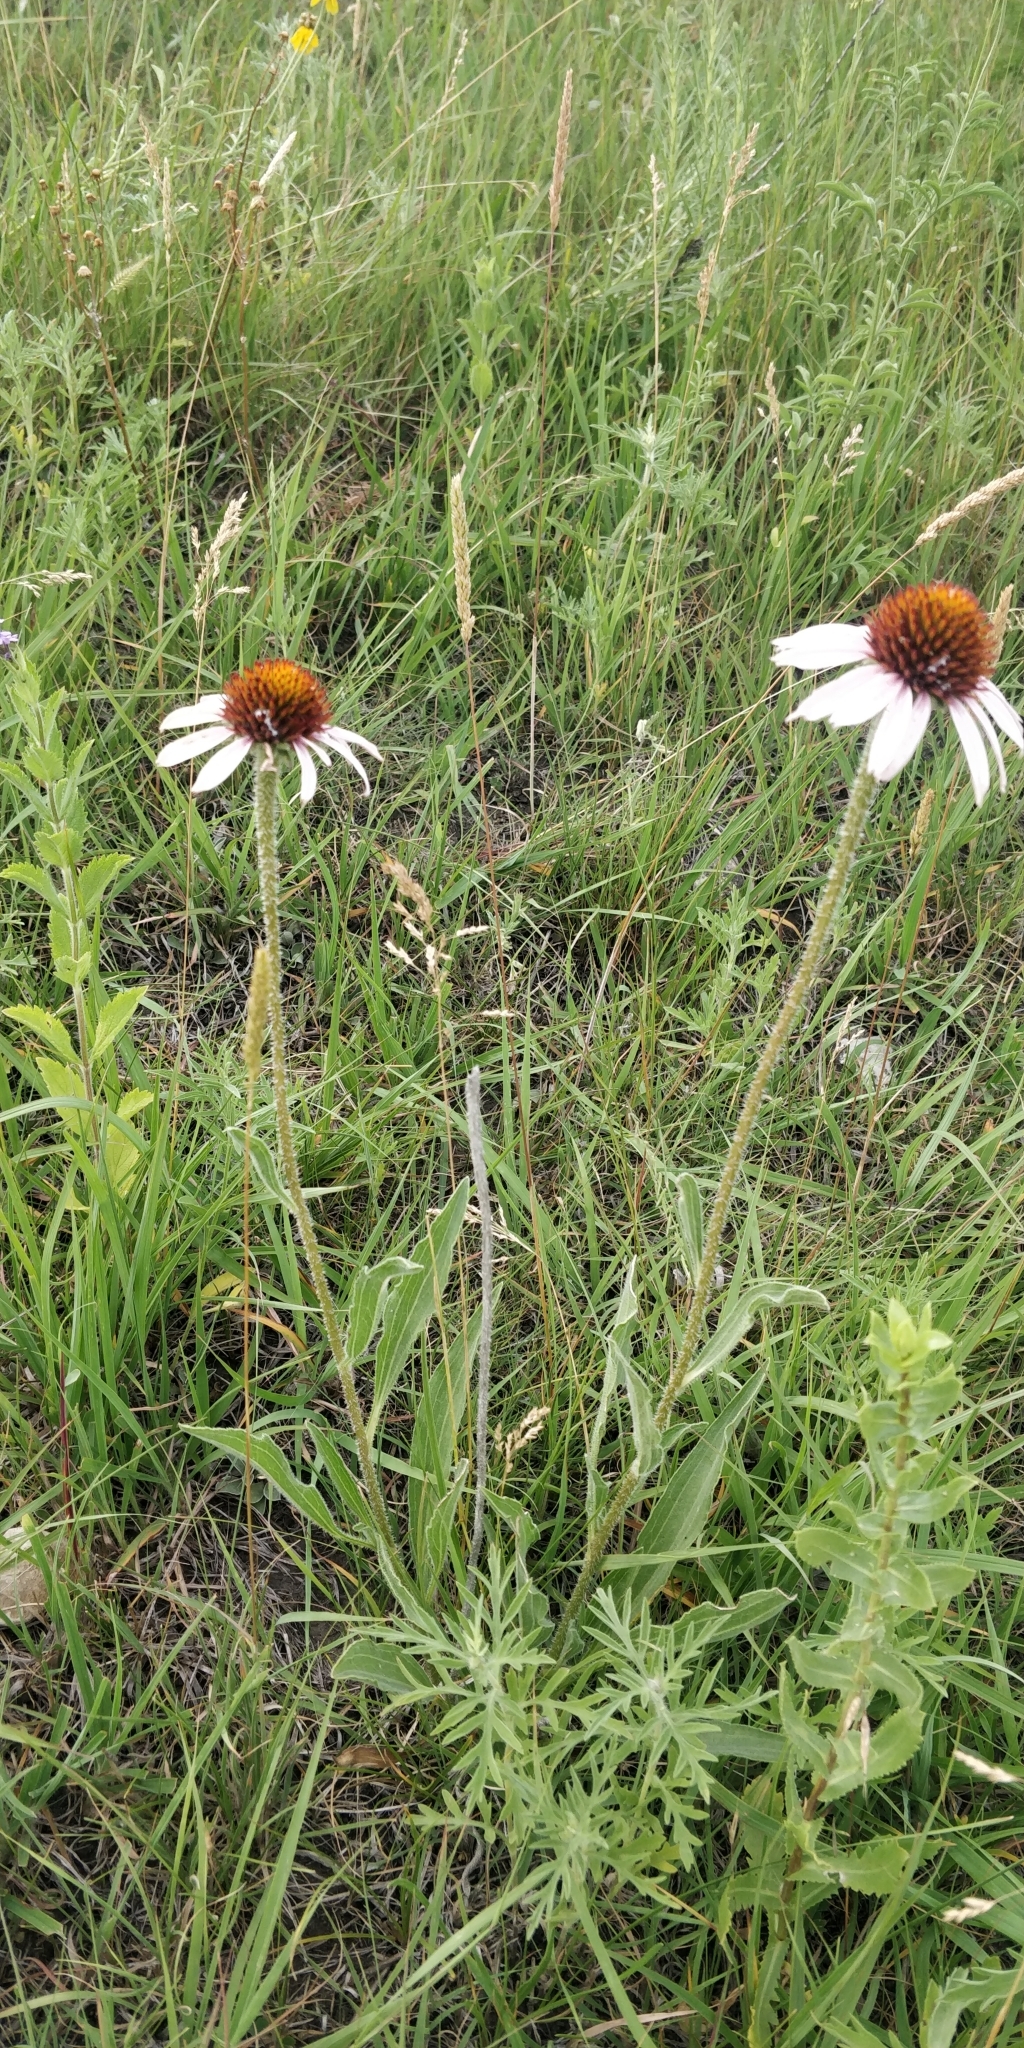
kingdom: Plantae
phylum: Tracheophyta
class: Magnoliopsida
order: Asterales
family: Asteraceae
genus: Echinacea
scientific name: Echinacea angustifolia
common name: Black-sampson echinacea
